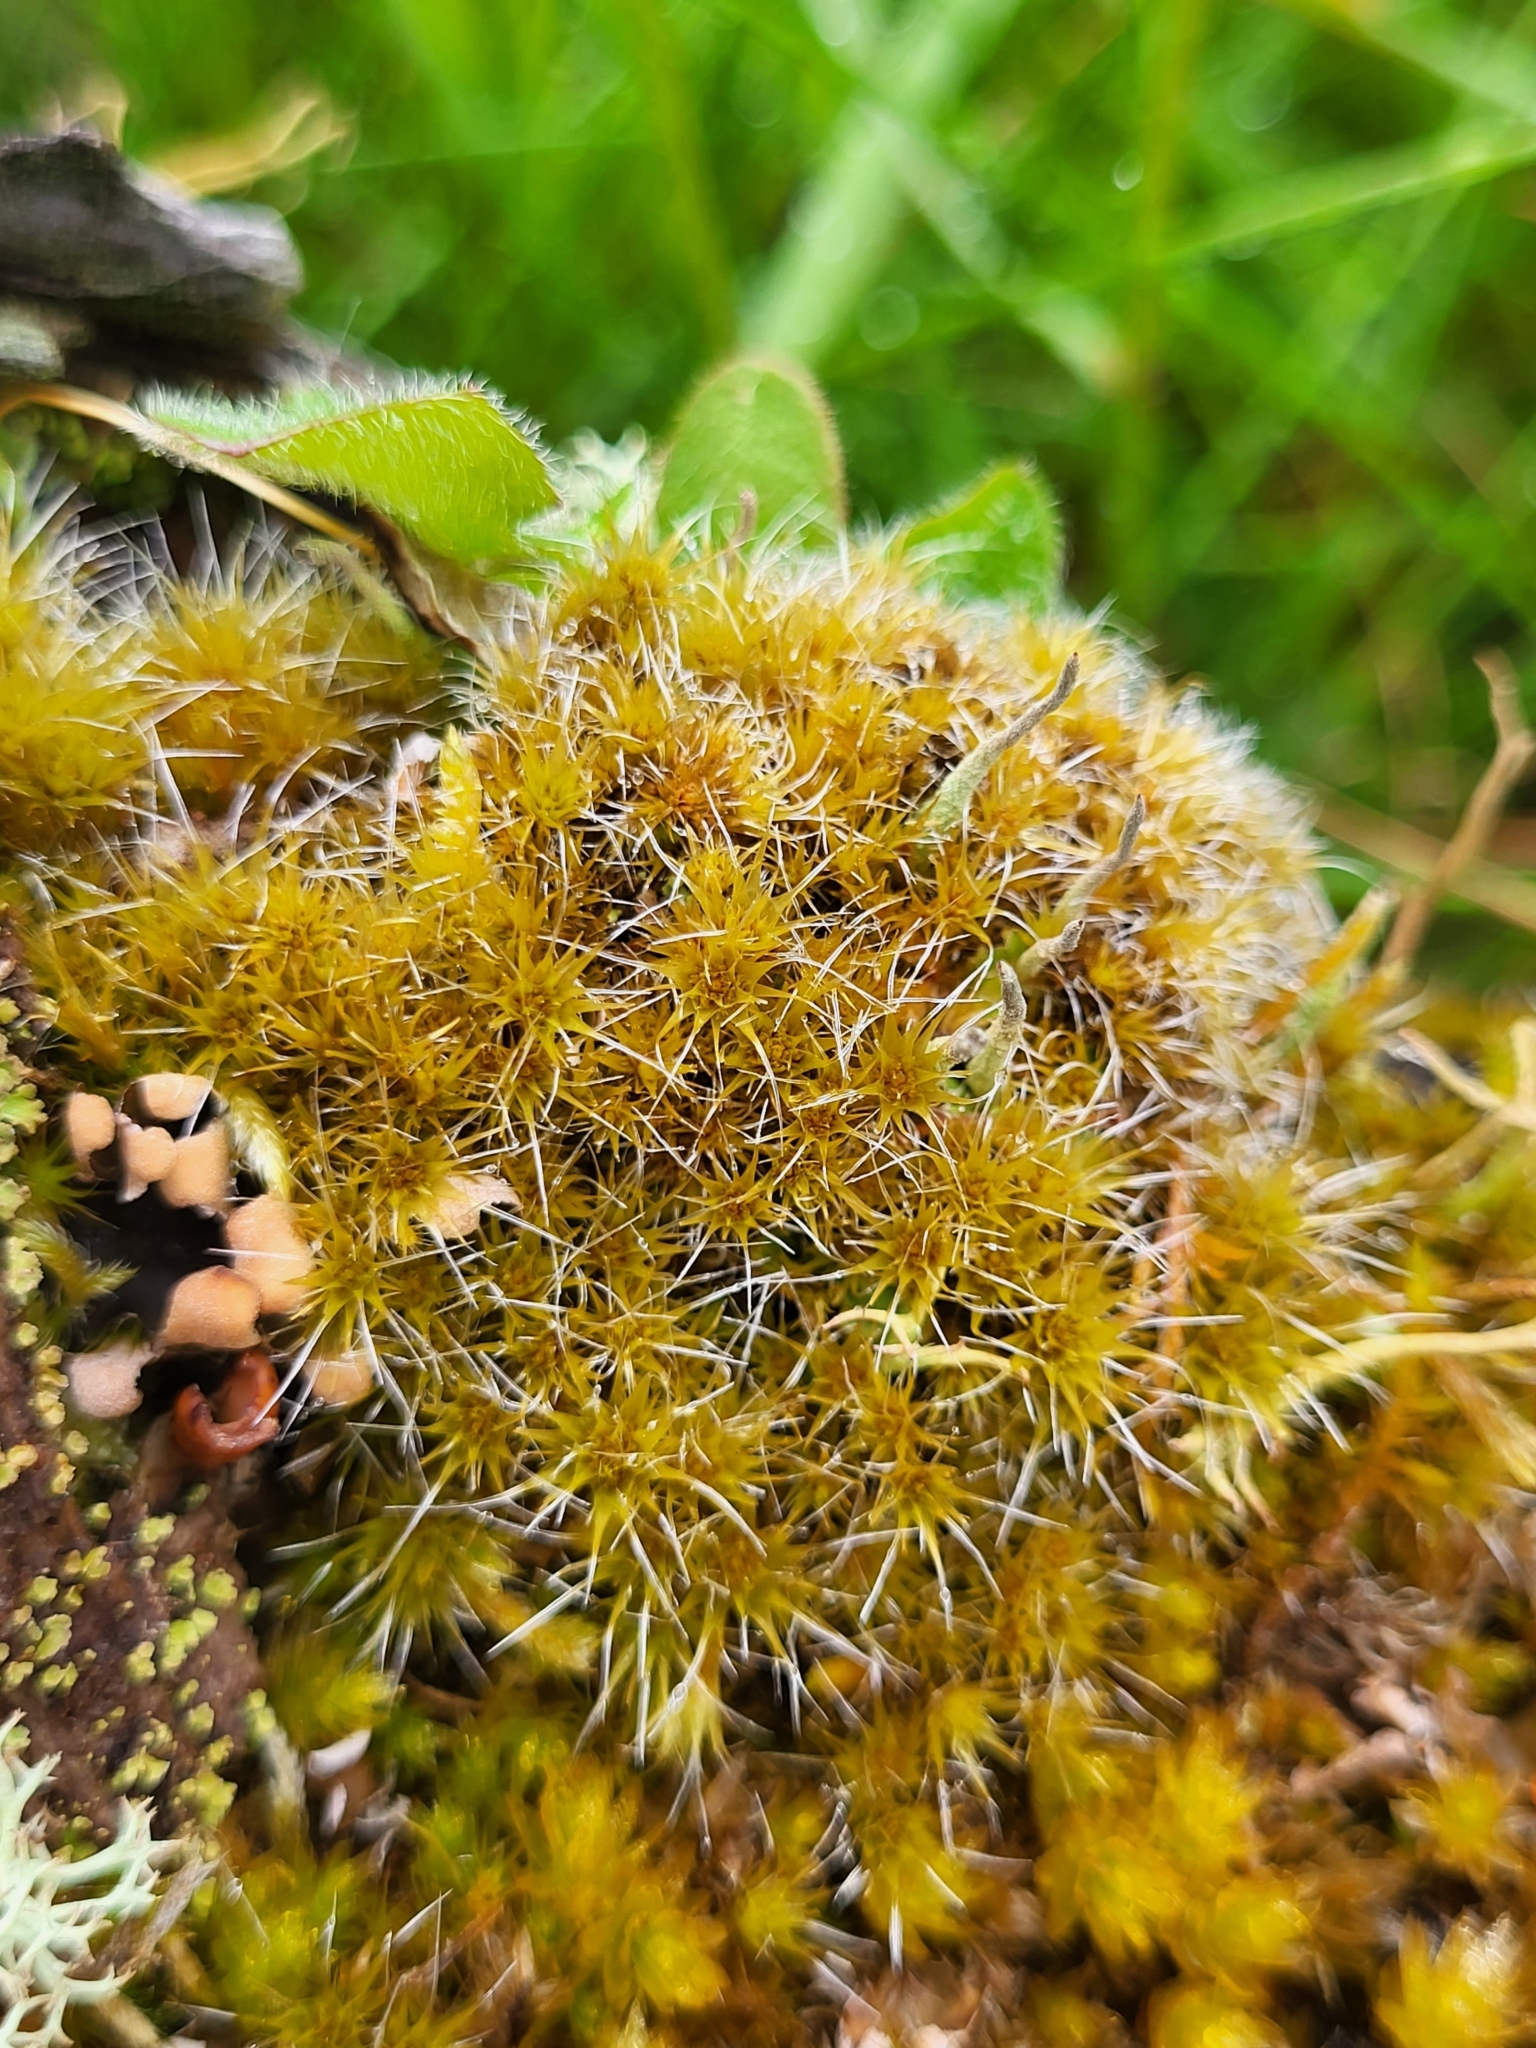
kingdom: Plantae
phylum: Bryophyta
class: Bryopsida
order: Dicranales
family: Leucobryaceae
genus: Campylopus
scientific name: Campylopus introflexus
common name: Heath star moss
